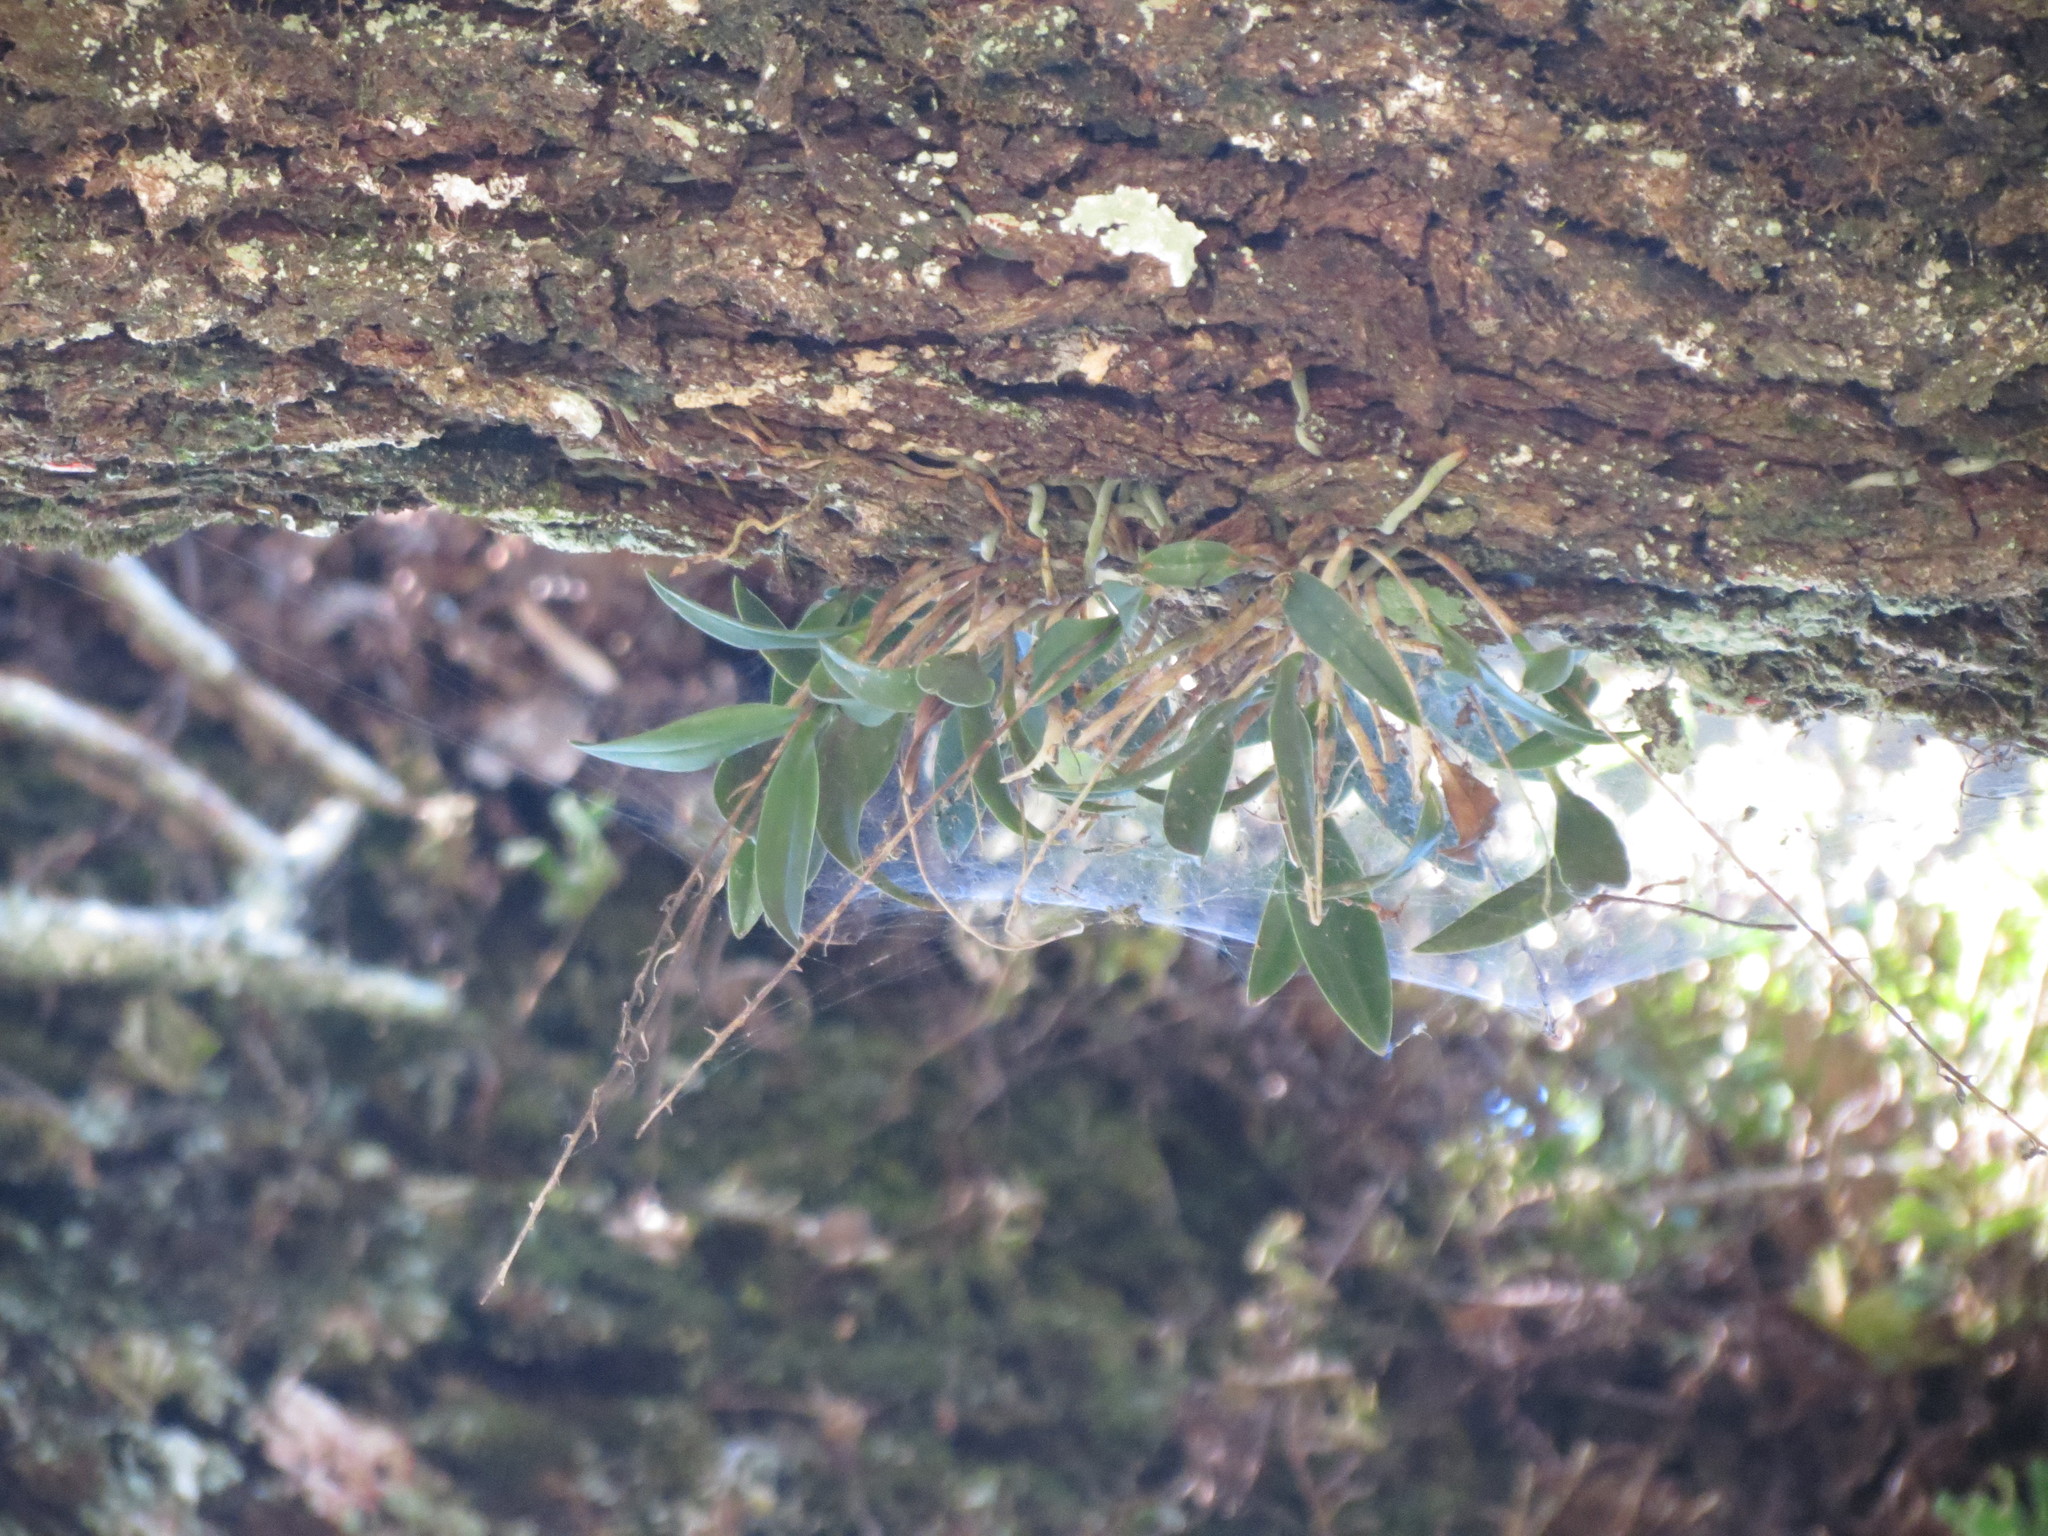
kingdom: Plantae
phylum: Tracheophyta
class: Liliopsida
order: Asparagales
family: Orchidaceae
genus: Epidendrum
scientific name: Epidendrum conopseum
